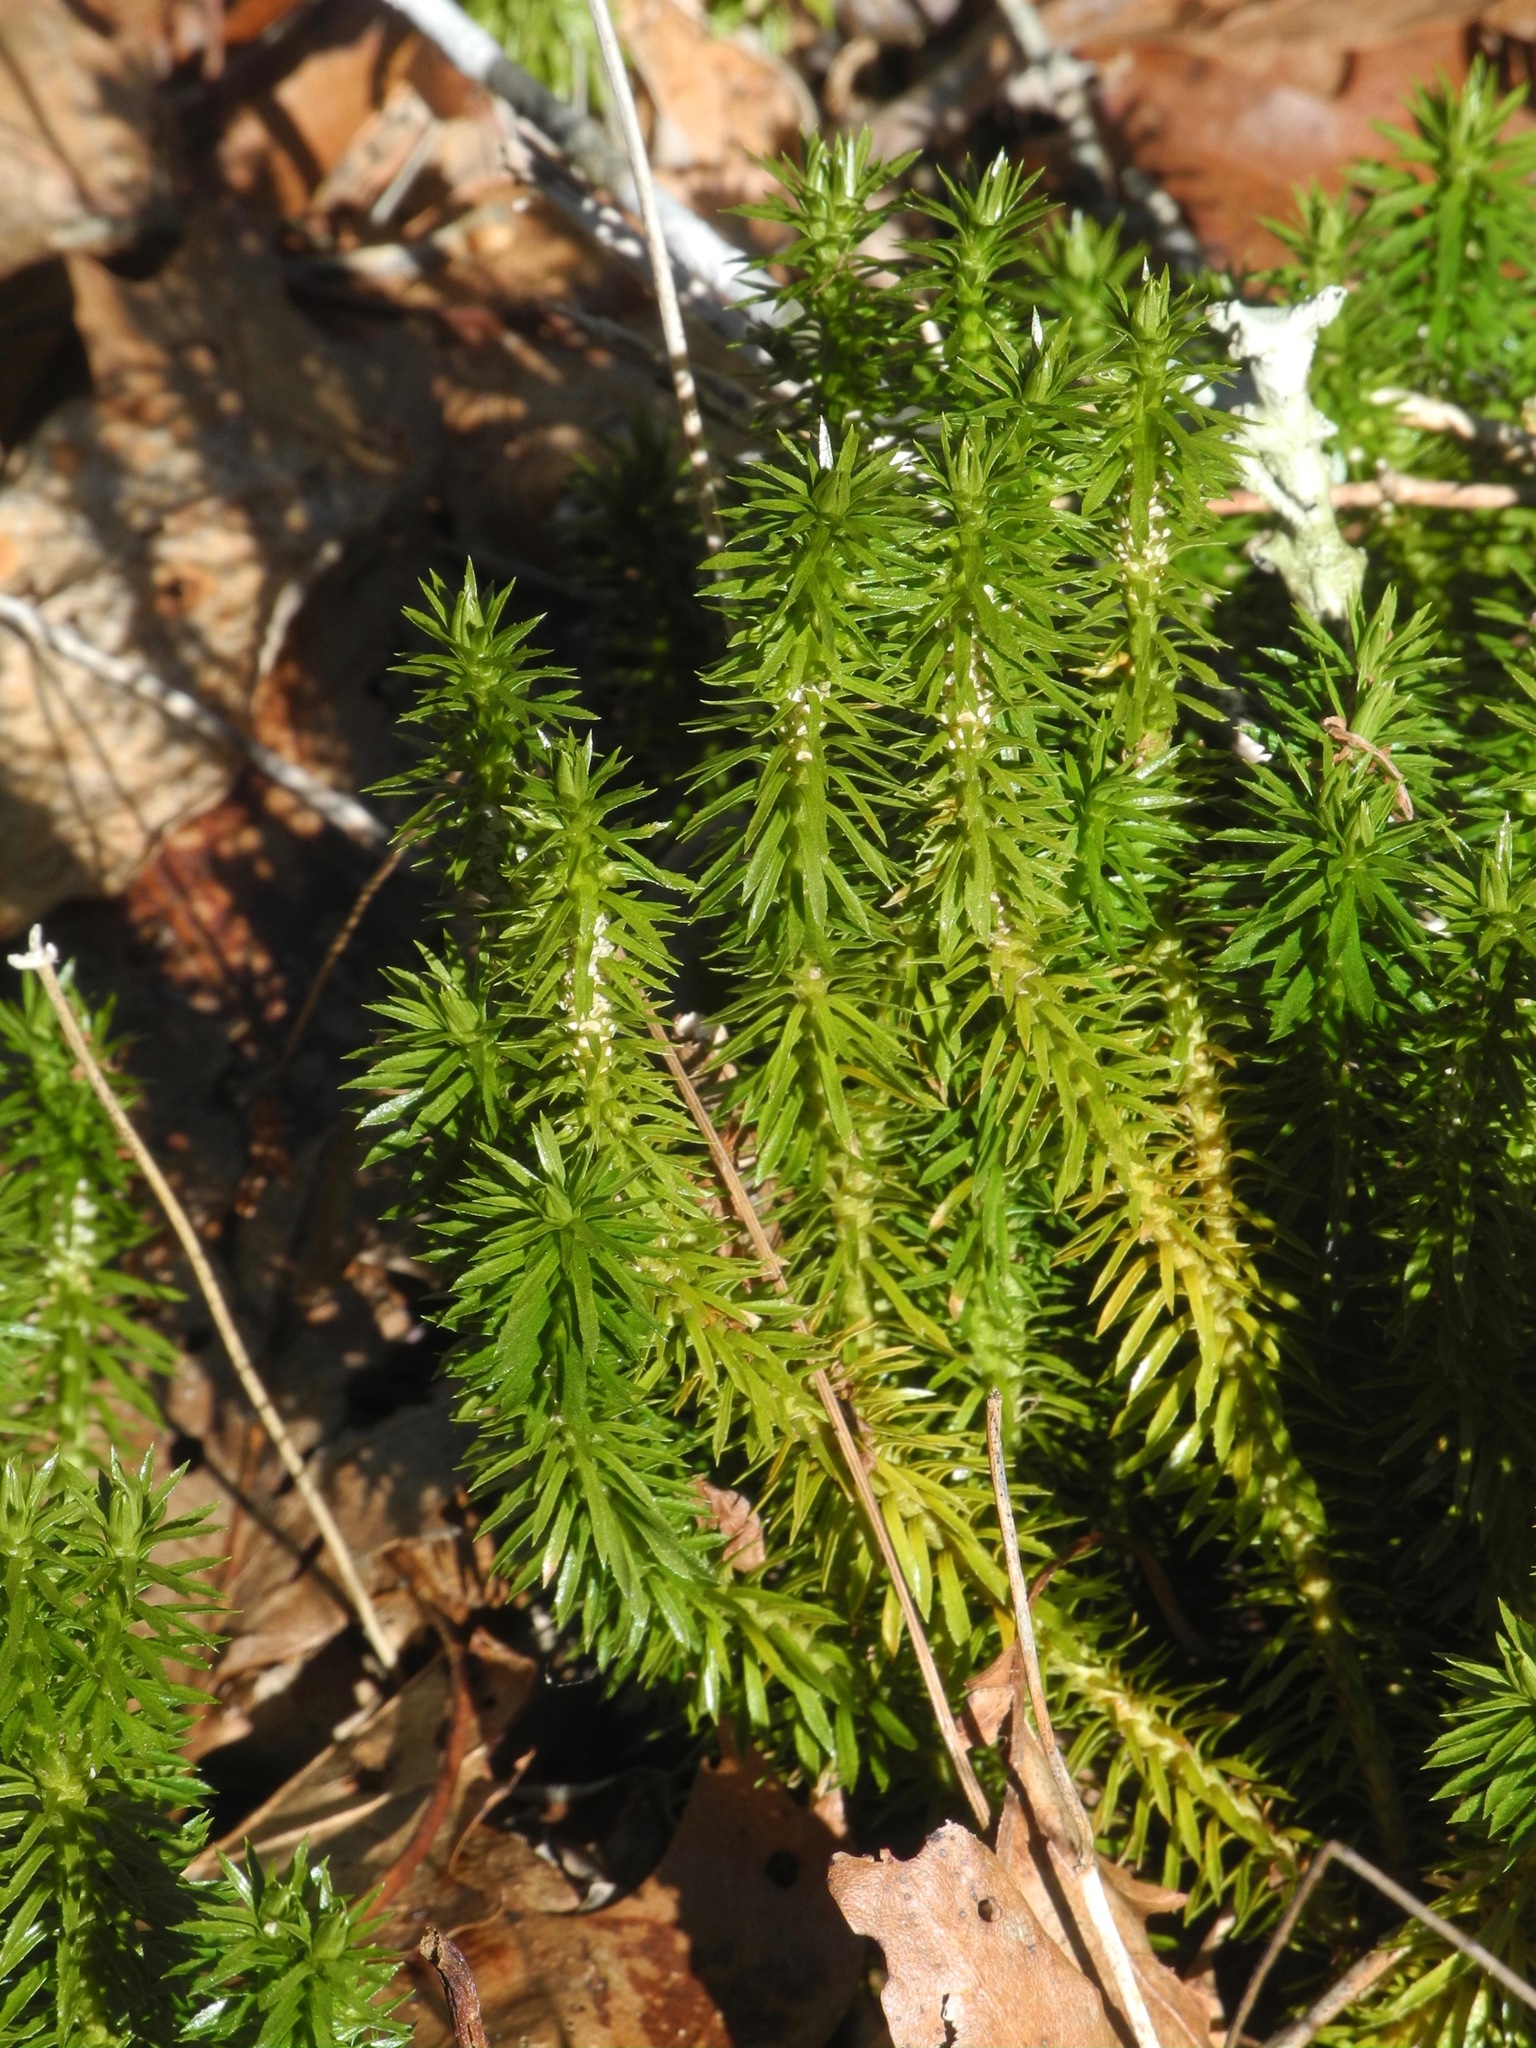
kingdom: Plantae
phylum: Tracheophyta
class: Lycopodiopsida
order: Lycopodiales
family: Lycopodiaceae
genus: Huperzia
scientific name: Huperzia lucidula
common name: Shining clubmoss
